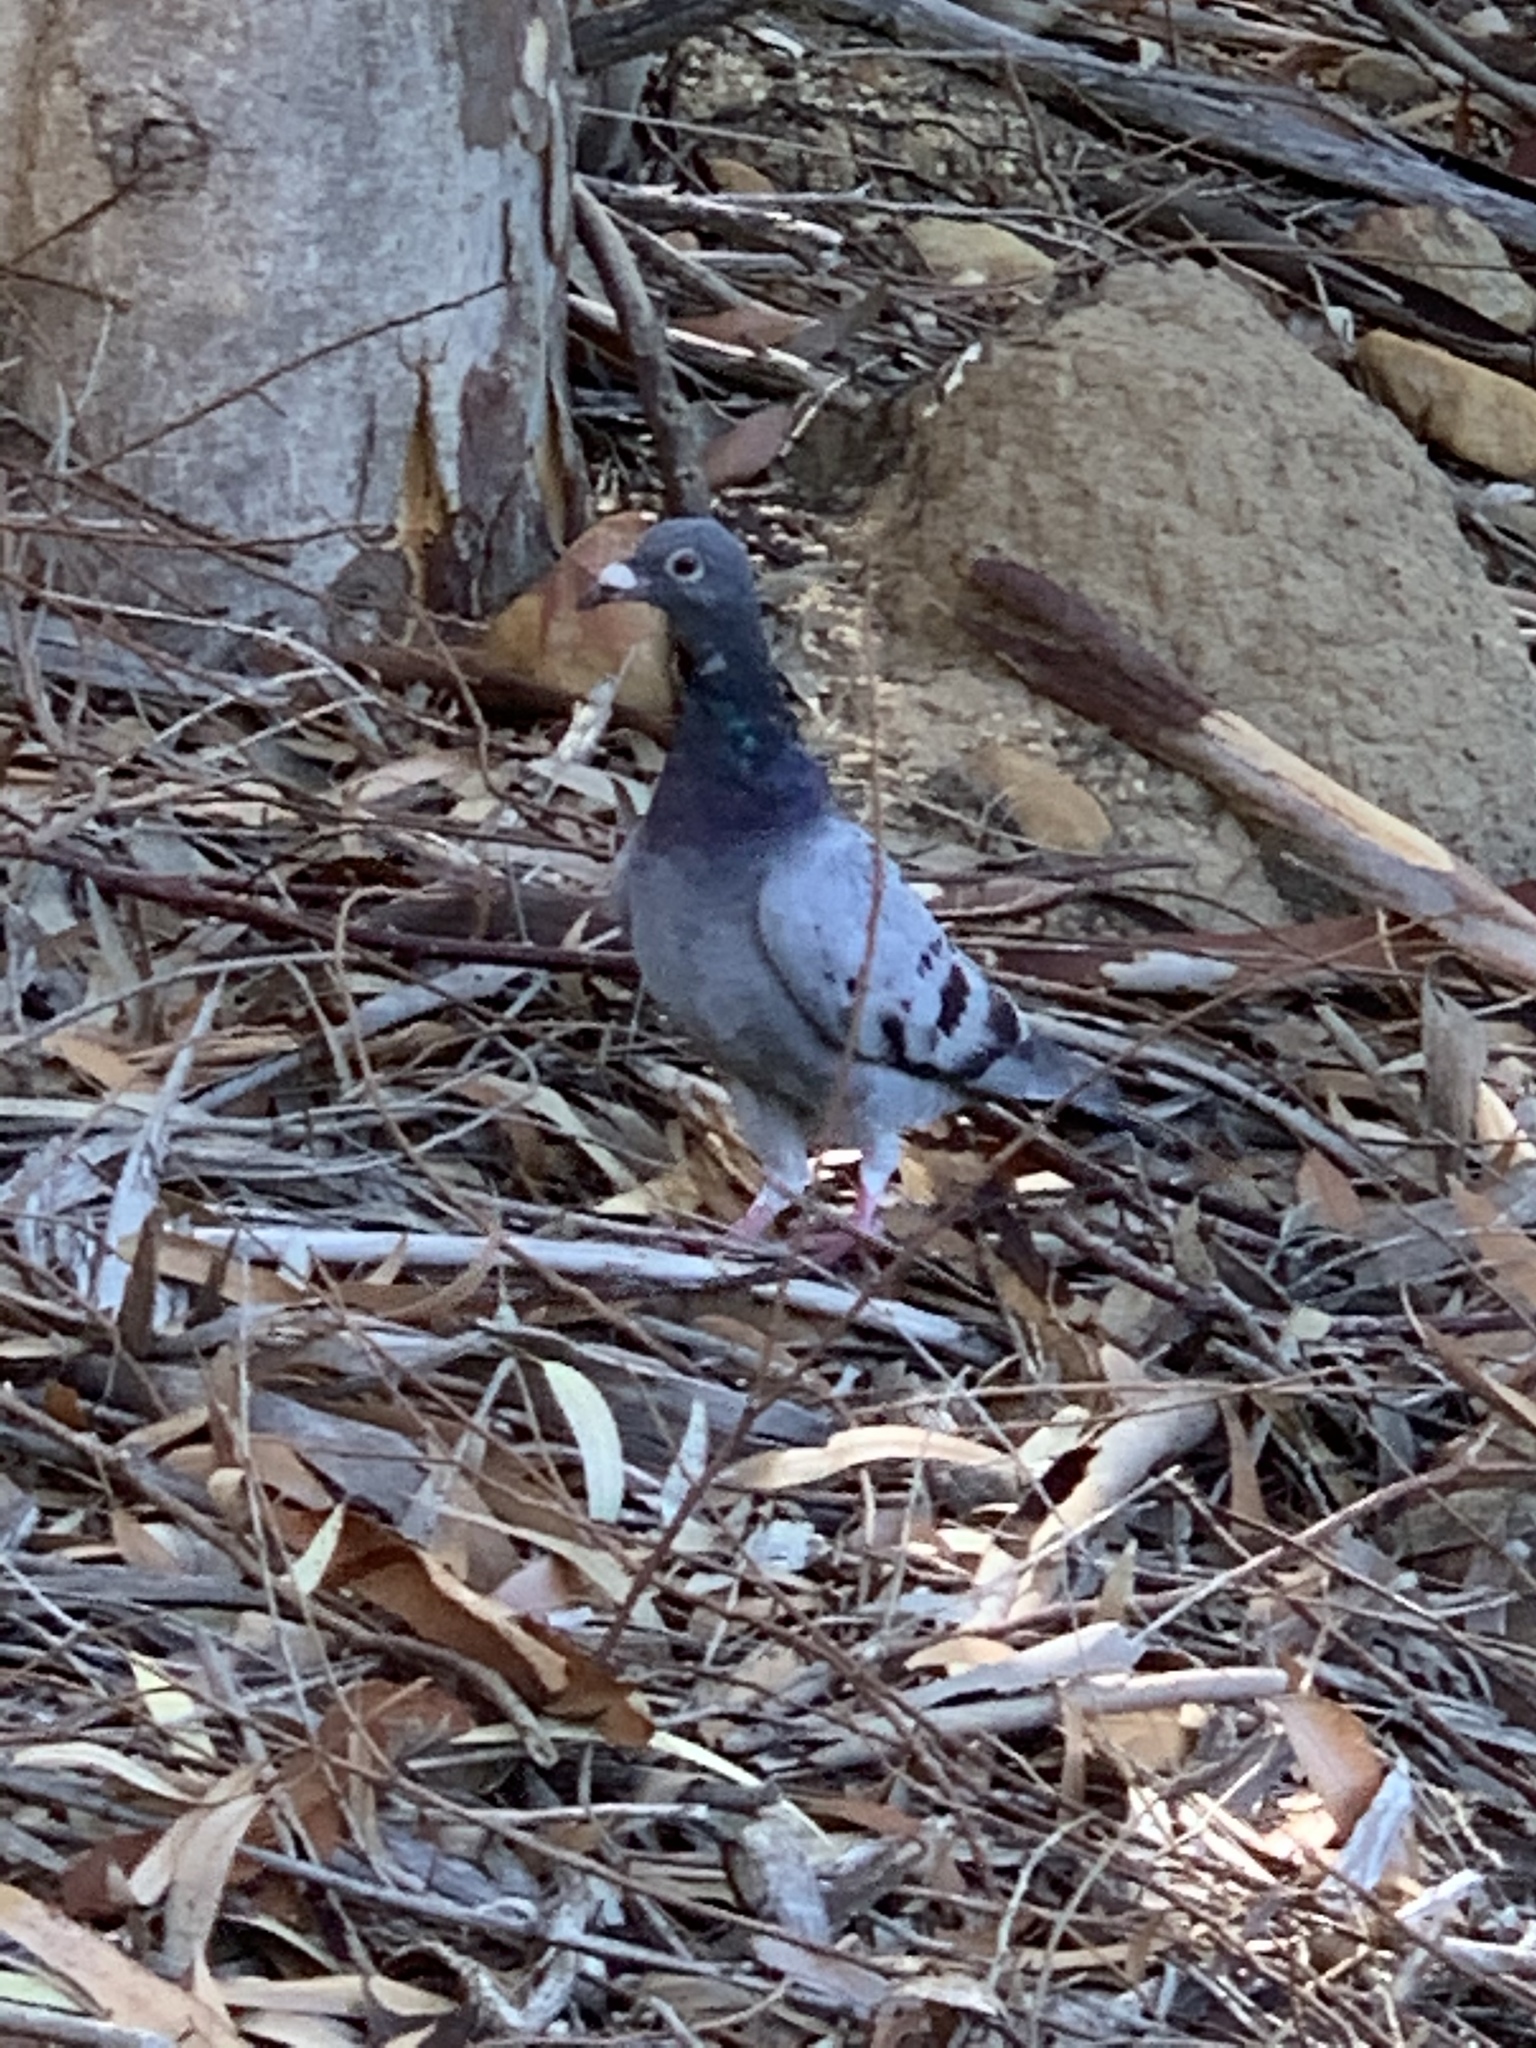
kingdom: Animalia
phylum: Chordata
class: Aves
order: Columbiformes
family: Columbidae
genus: Columba
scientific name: Columba livia
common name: Rock pigeon
